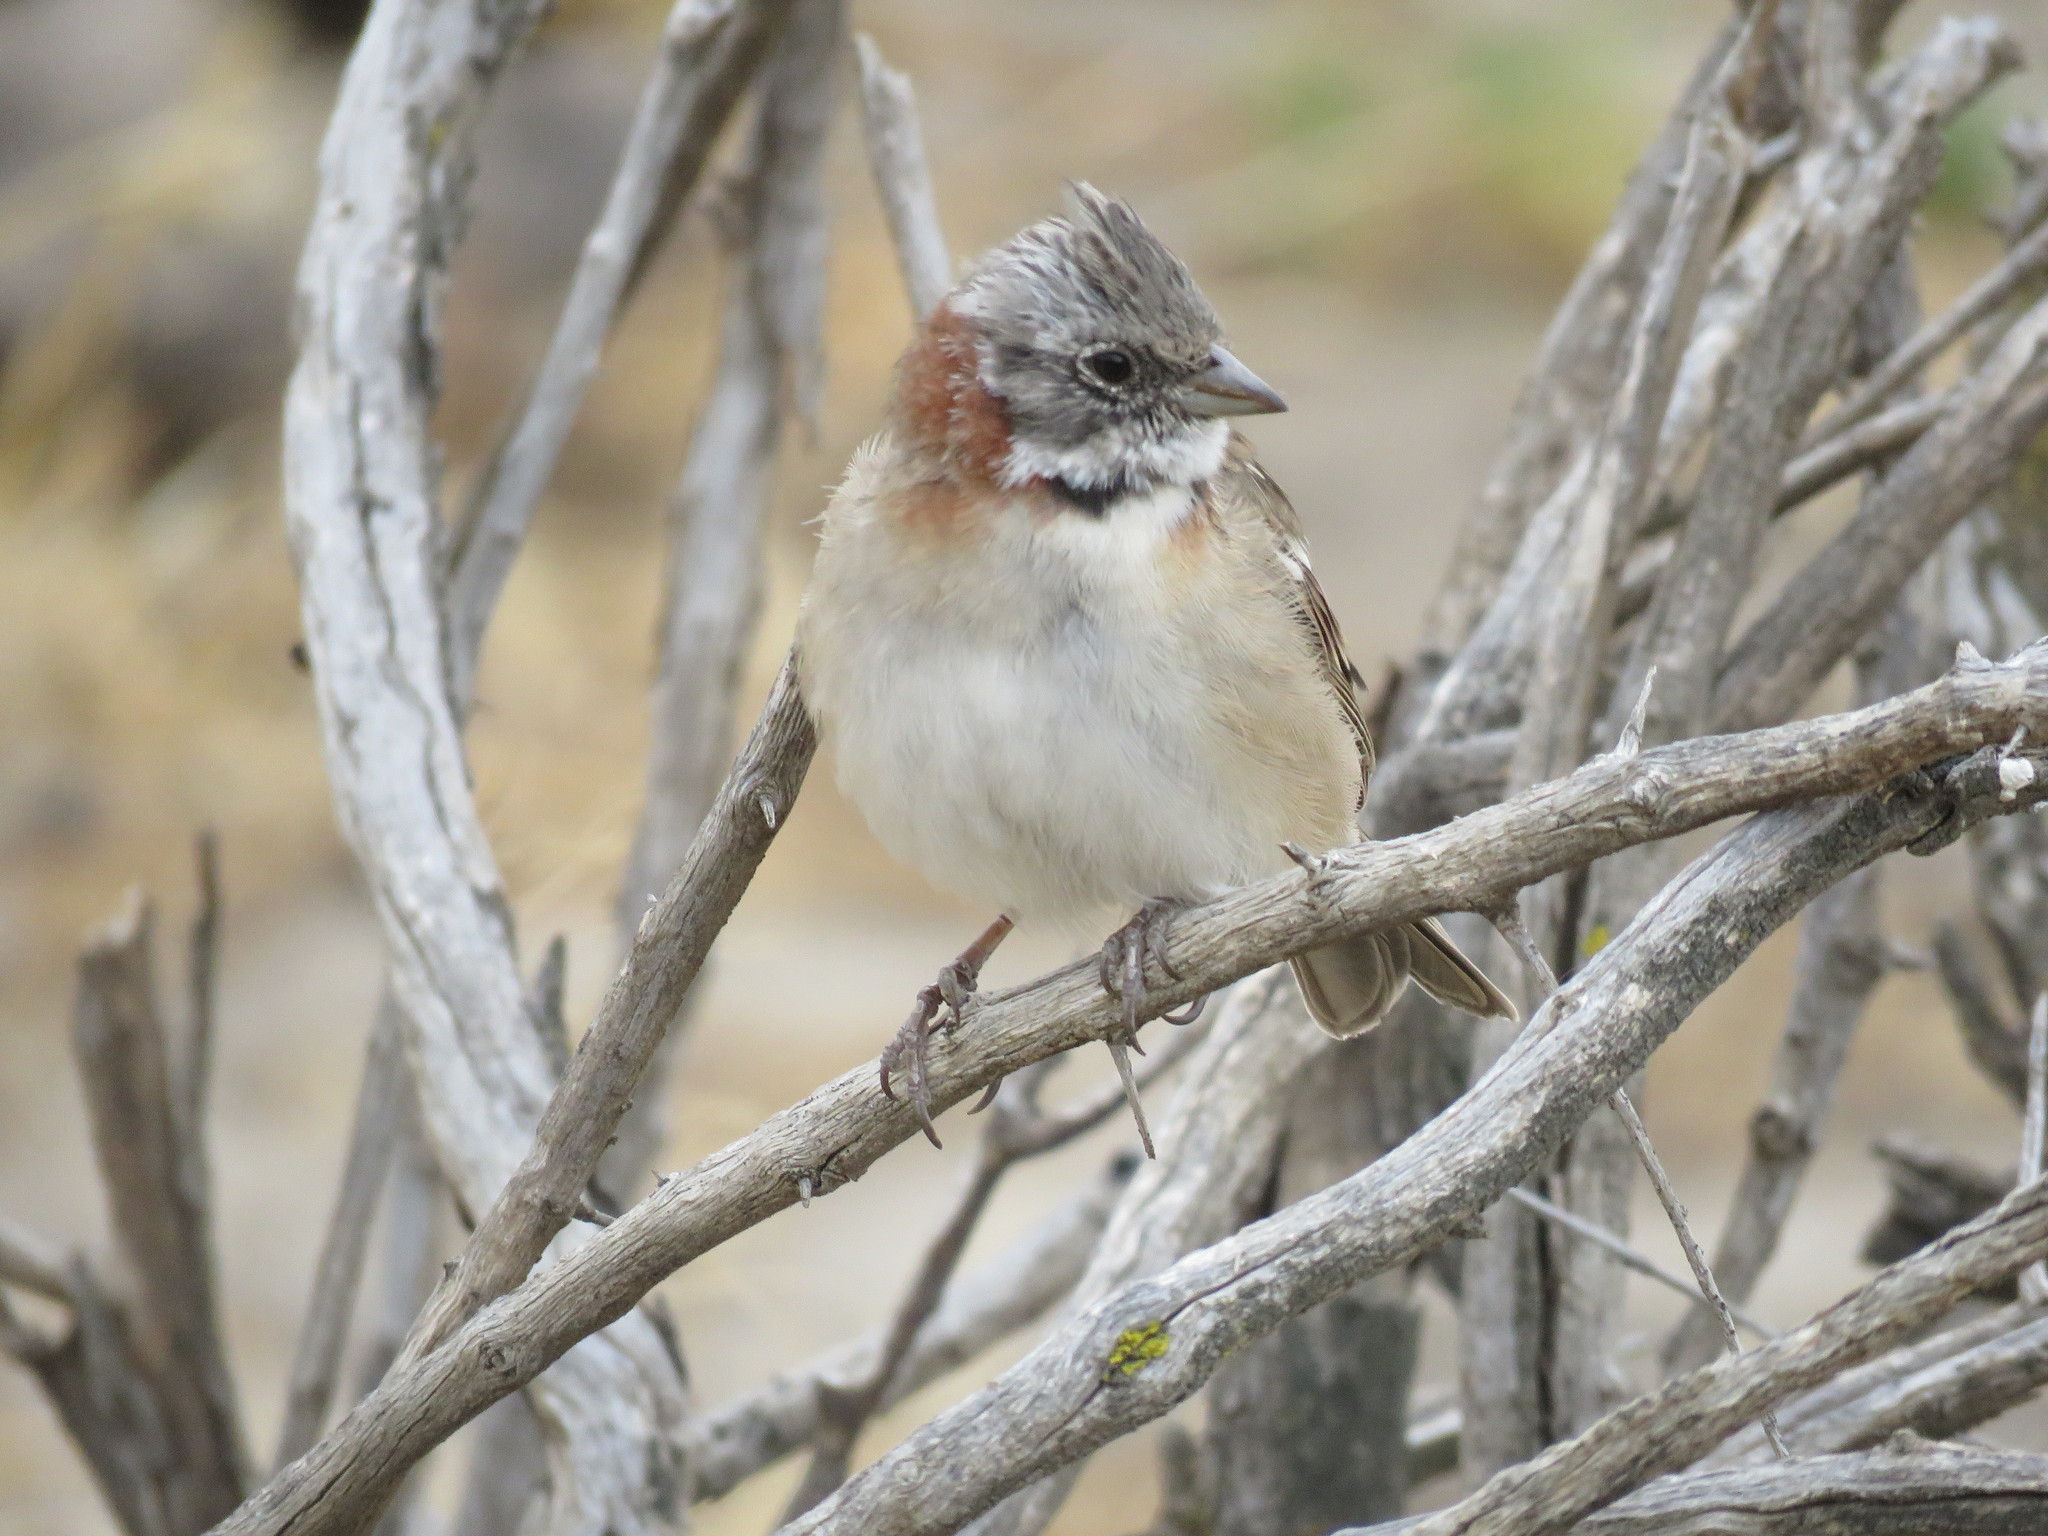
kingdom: Animalia
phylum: Chordata
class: Aves
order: Passeriformes
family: Passerellidae
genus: Zonotrichia
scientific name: Zonotrichia capensis
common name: Rufous-collared sparrow
